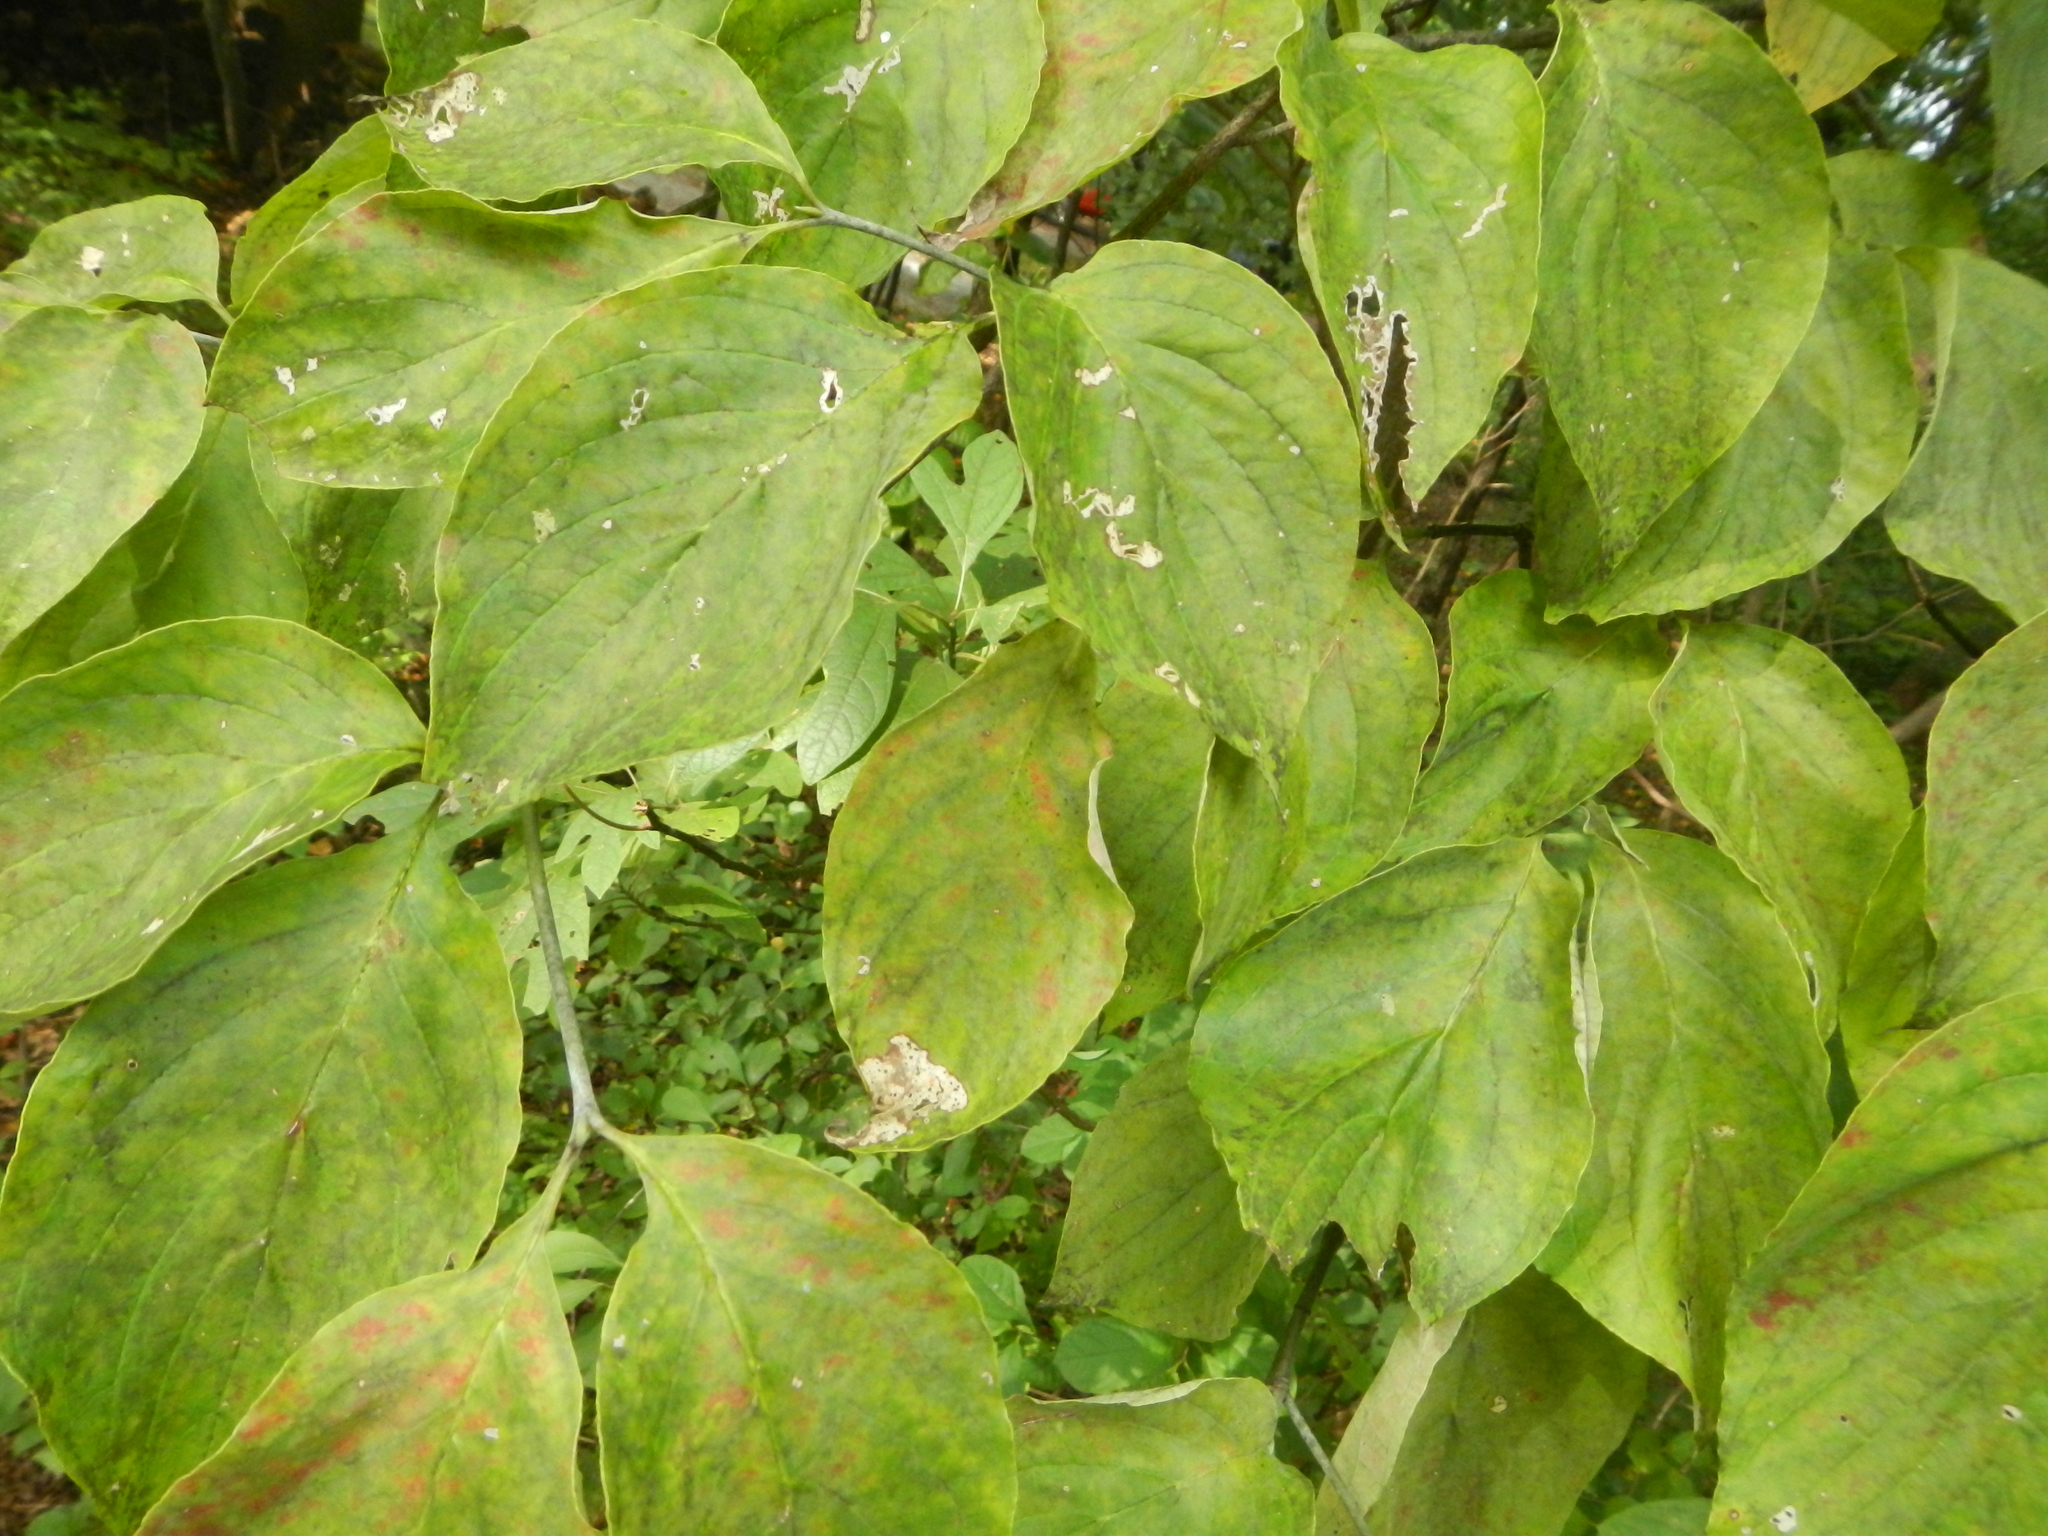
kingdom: Plantae
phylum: Tracheophyta
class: Magnoliopsida
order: Cornales
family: Cornaceae
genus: Cornus
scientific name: Cornus florida
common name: Flowering dogwood
